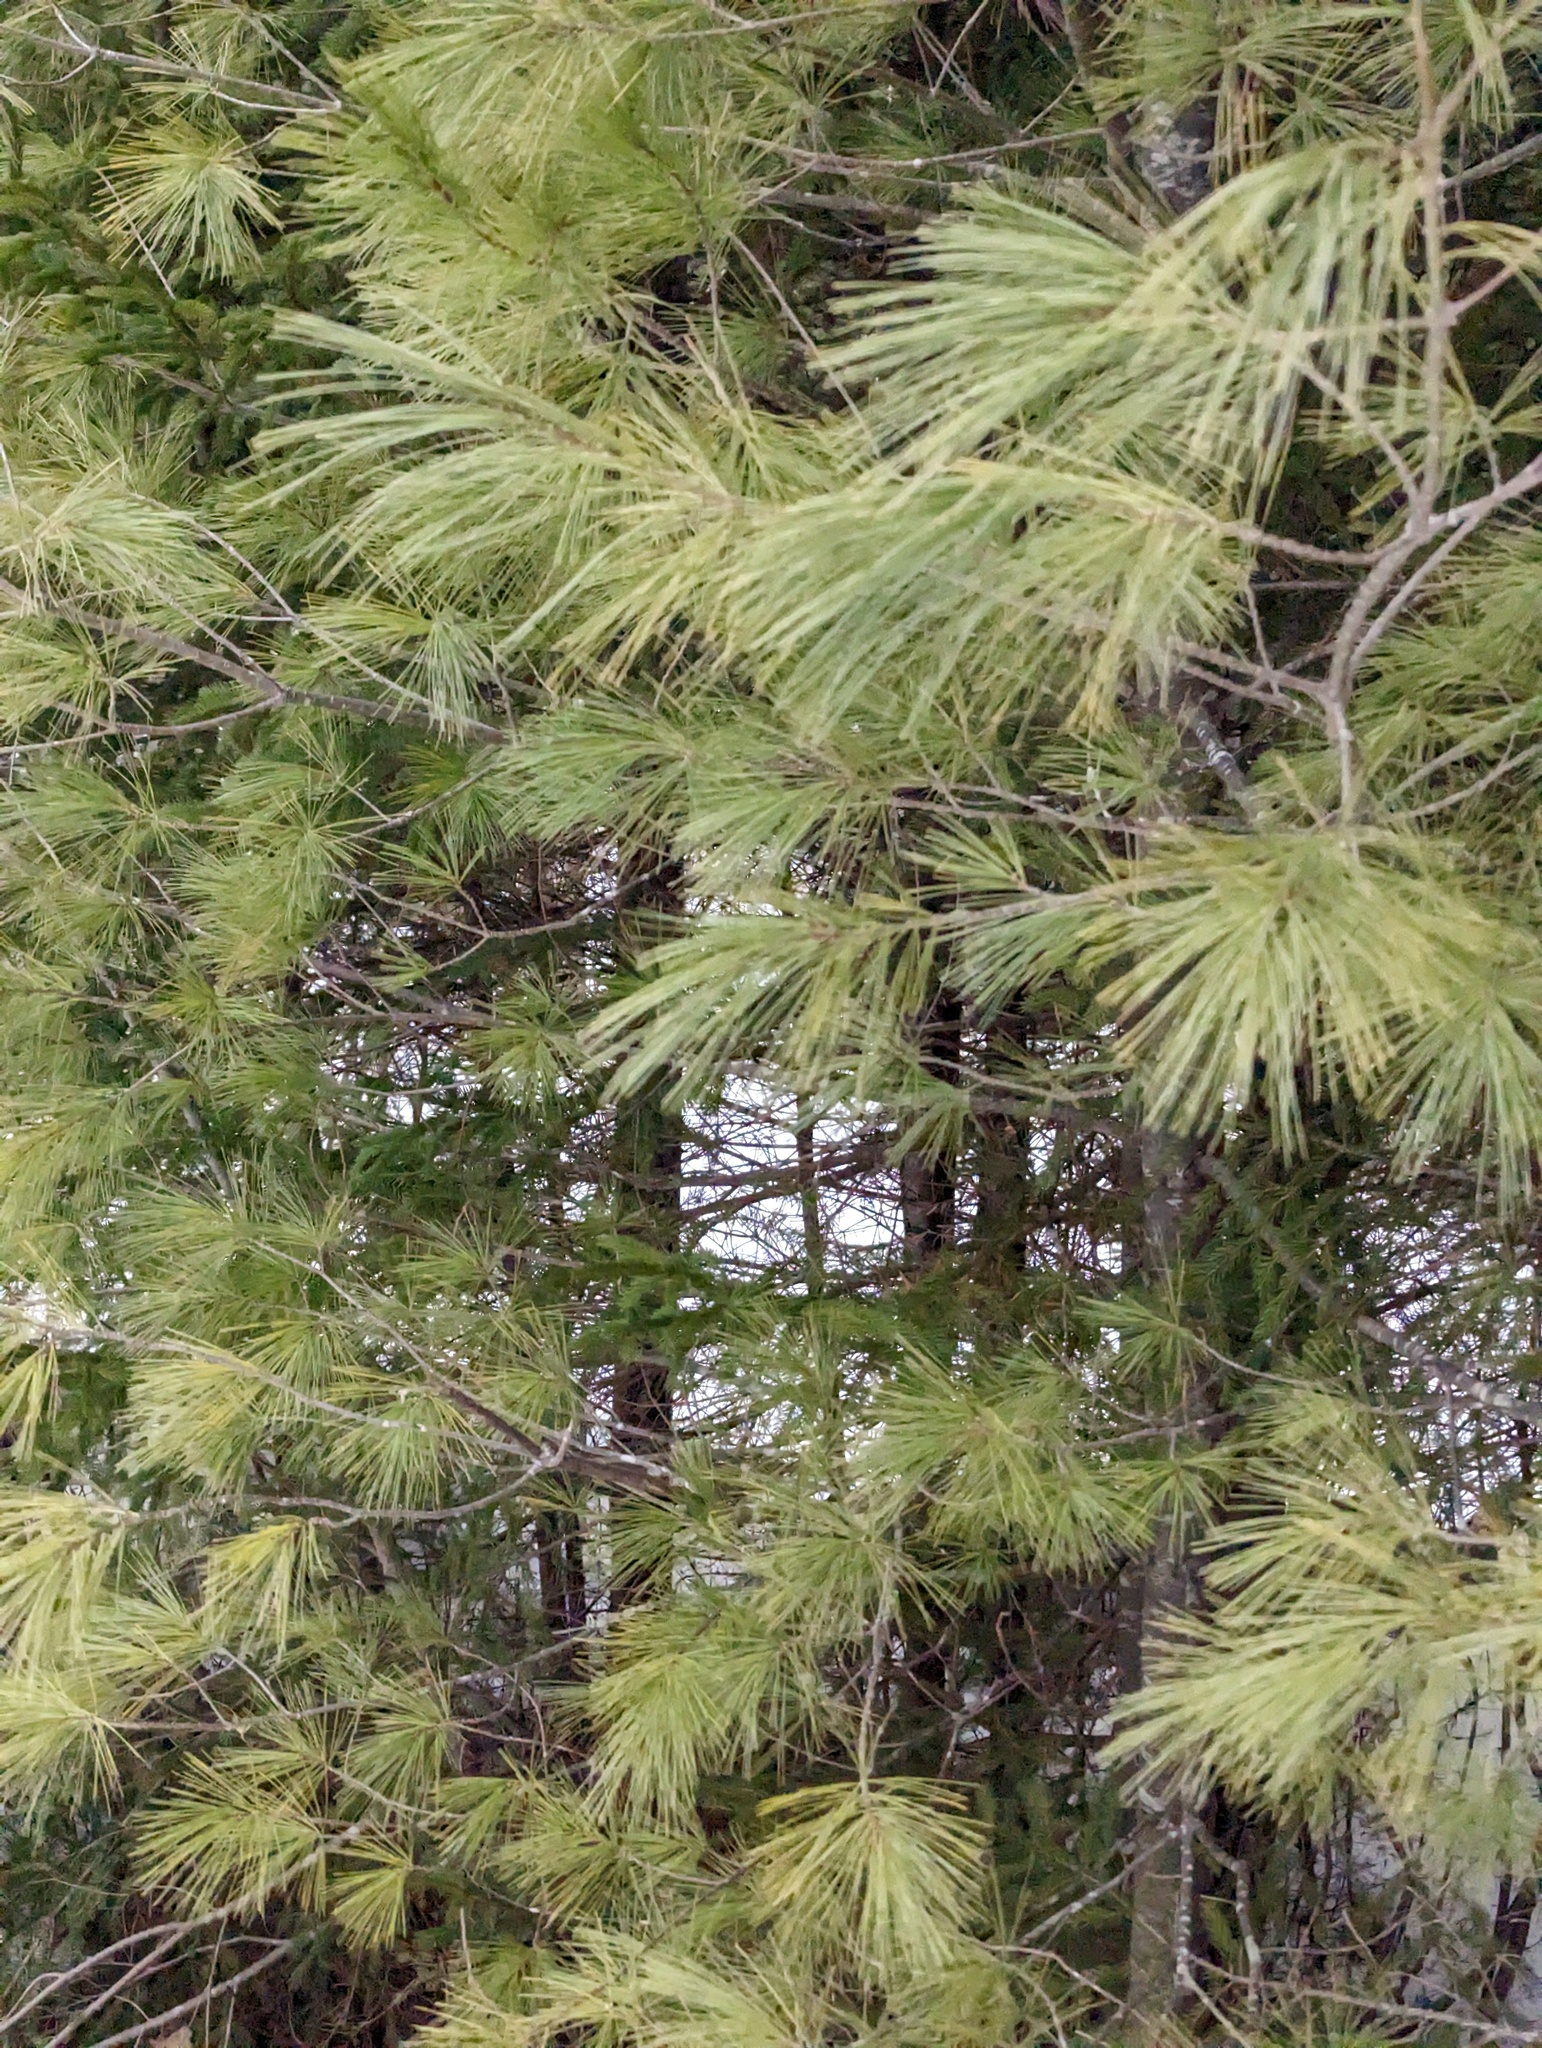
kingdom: Plantae
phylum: Tracheophyta
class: Pinopsida
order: Pinales
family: Pinaceae
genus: Pinus
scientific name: Pinus strobus
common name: Weymouth pine
